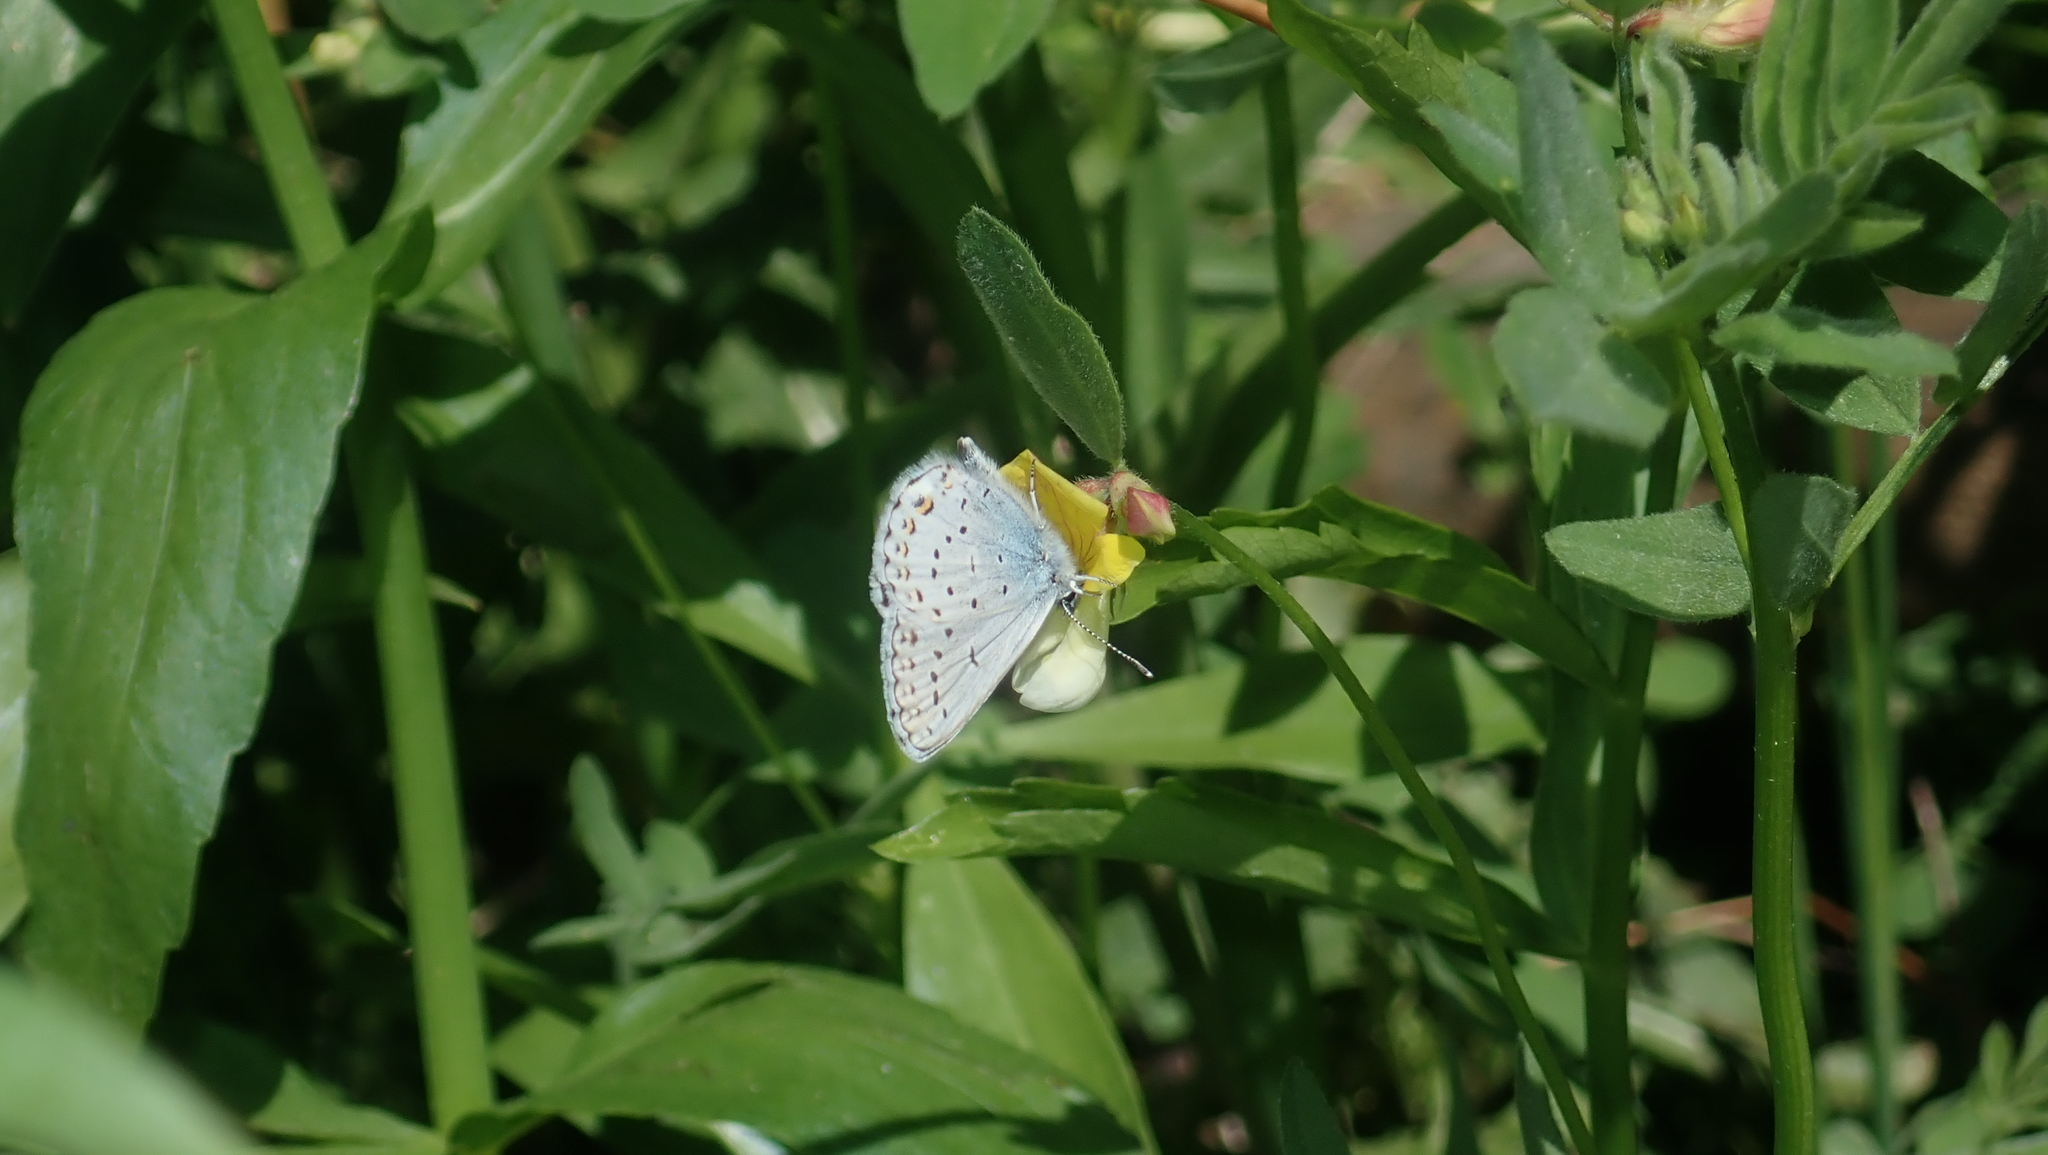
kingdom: Plantae
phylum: Tracheophyta
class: Magnoliopsida
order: Fabales
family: Fabaceae
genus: Hosackia
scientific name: Hosackia oblongifolia
